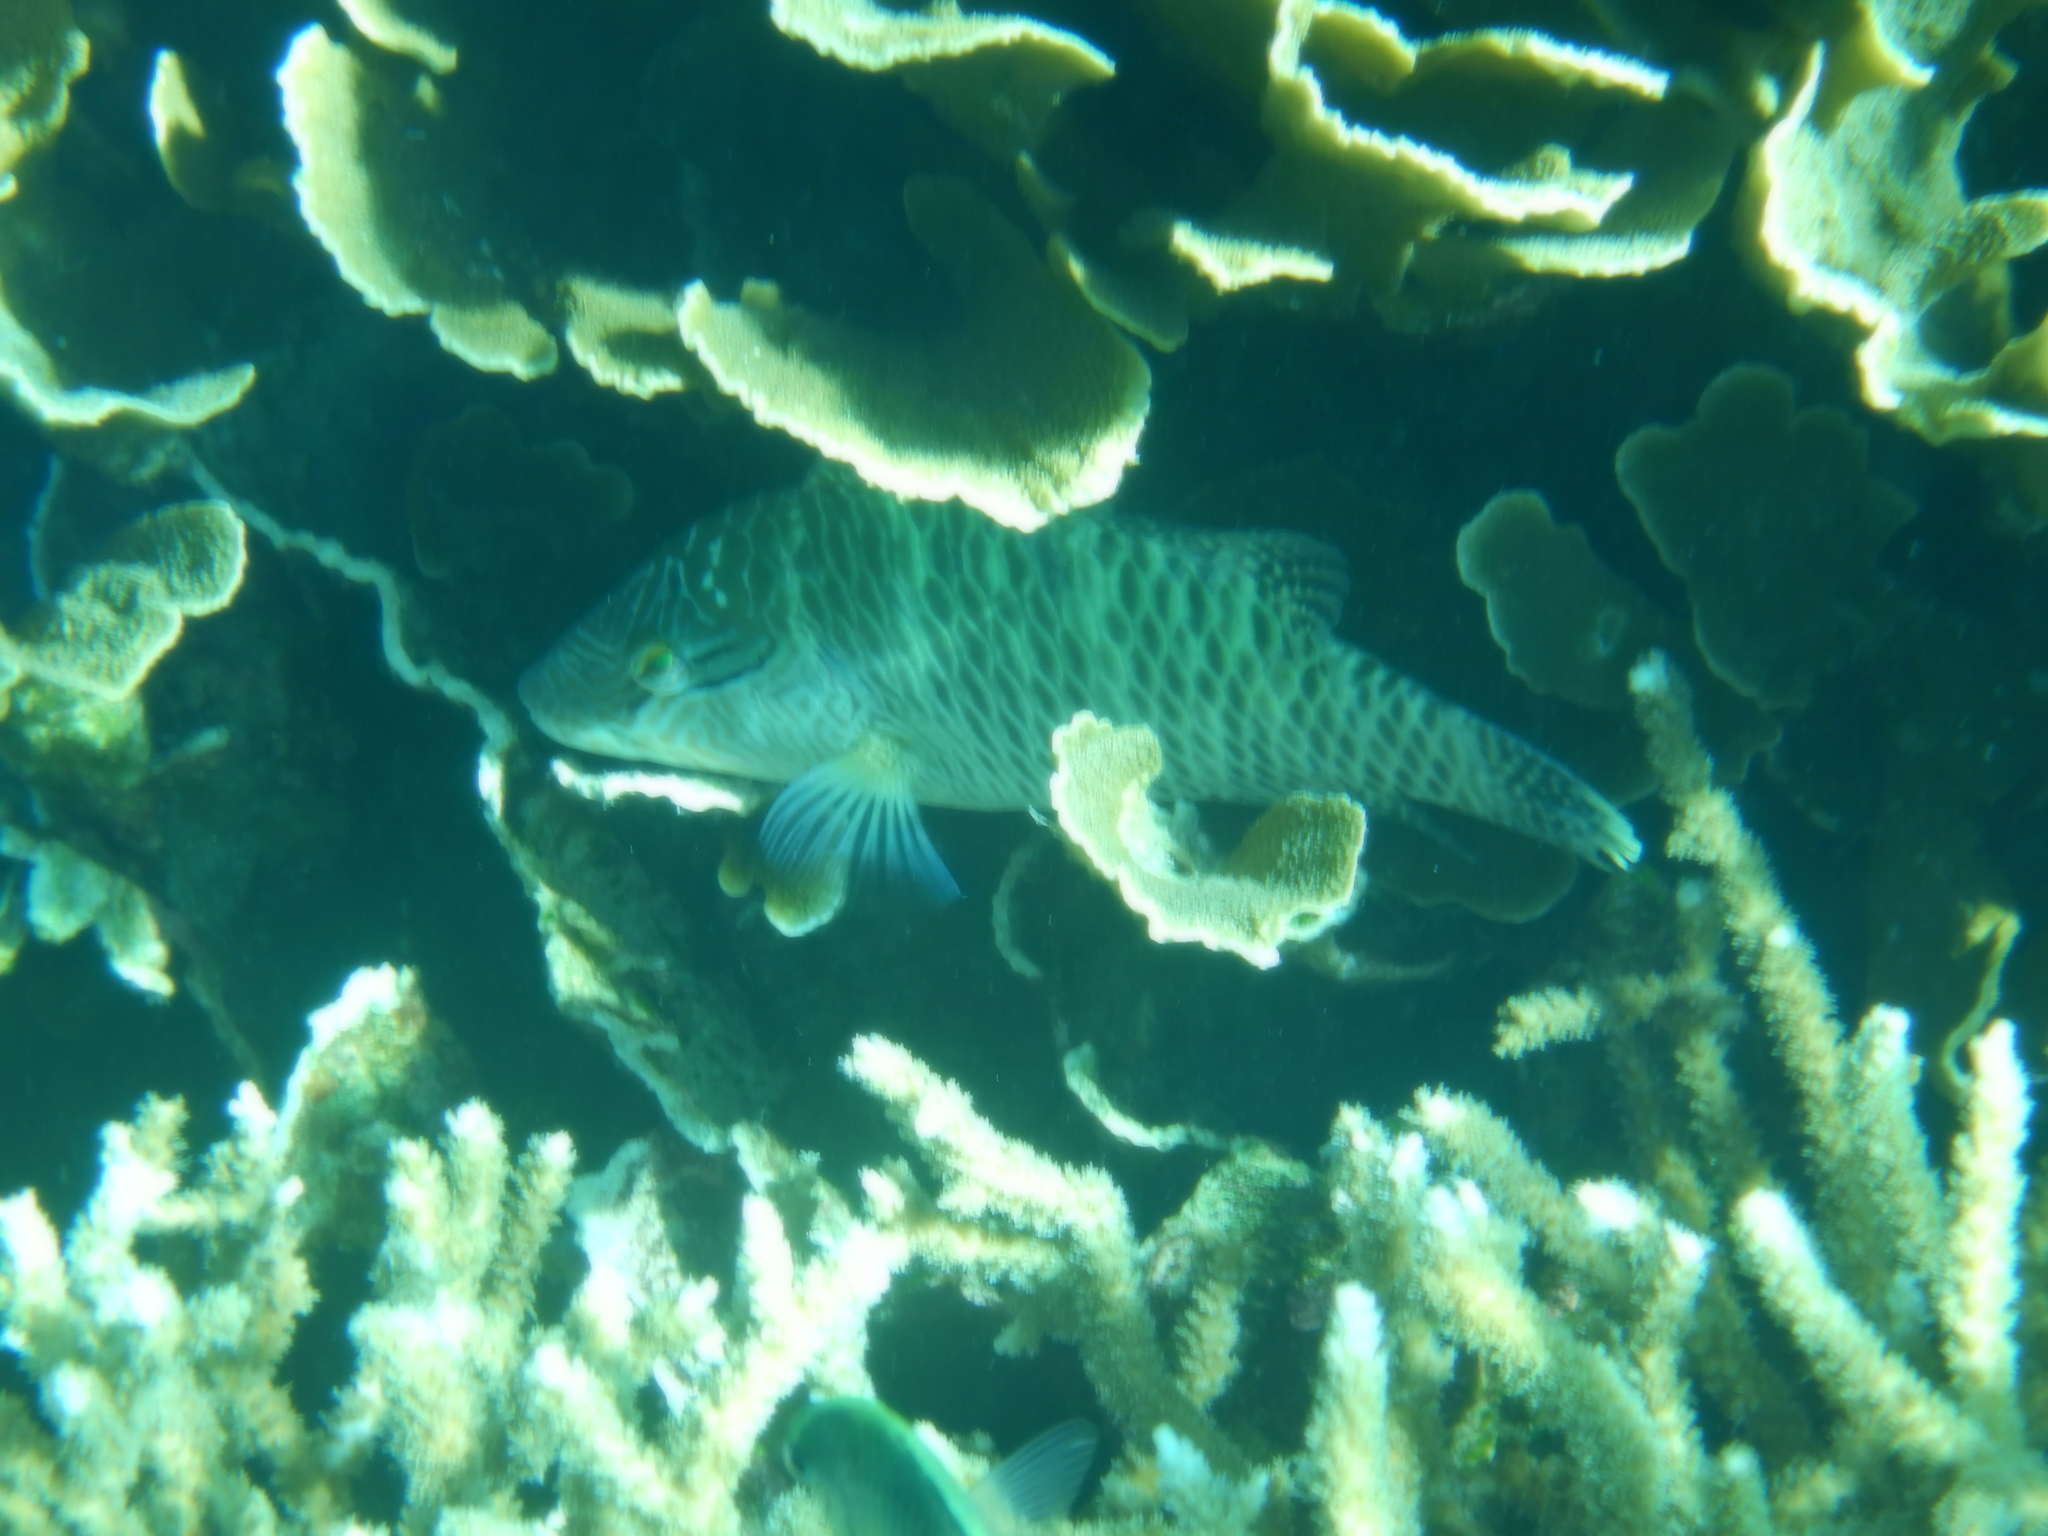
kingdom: Animalia
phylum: Chordata
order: Perciformes
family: Labridae
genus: Cheilinus
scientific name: Cheilinus undulatus
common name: Humphead wrasse
